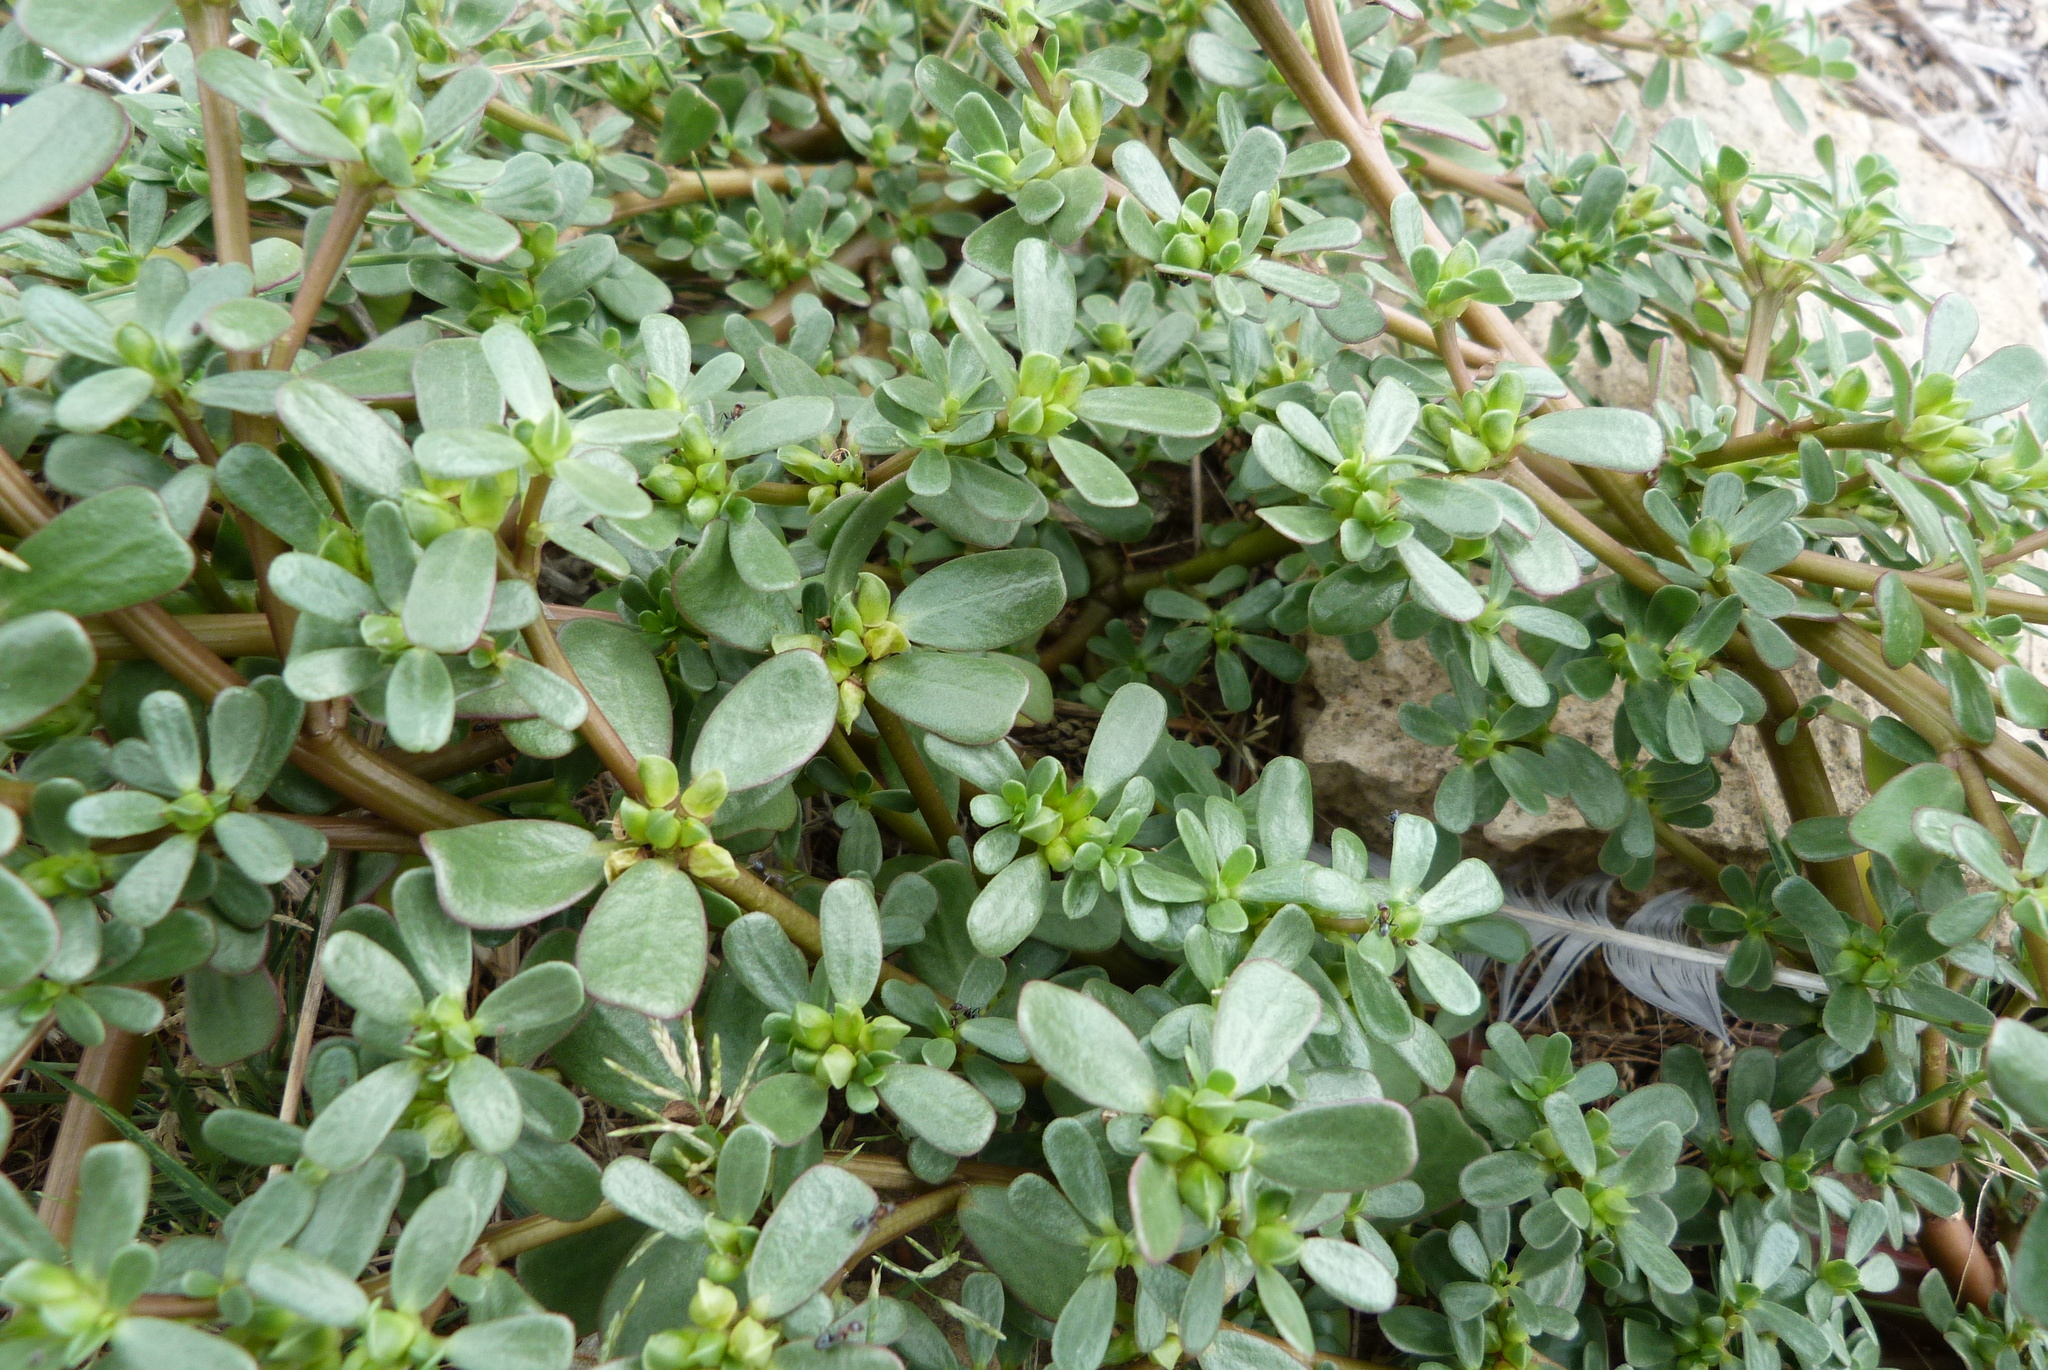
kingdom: Plantae
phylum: Tracheophyta
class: Magnoliopsida
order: Caryophyllales
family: Portulacaceae
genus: Portulaca
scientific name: Portulaca oleracea
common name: Common purslane
